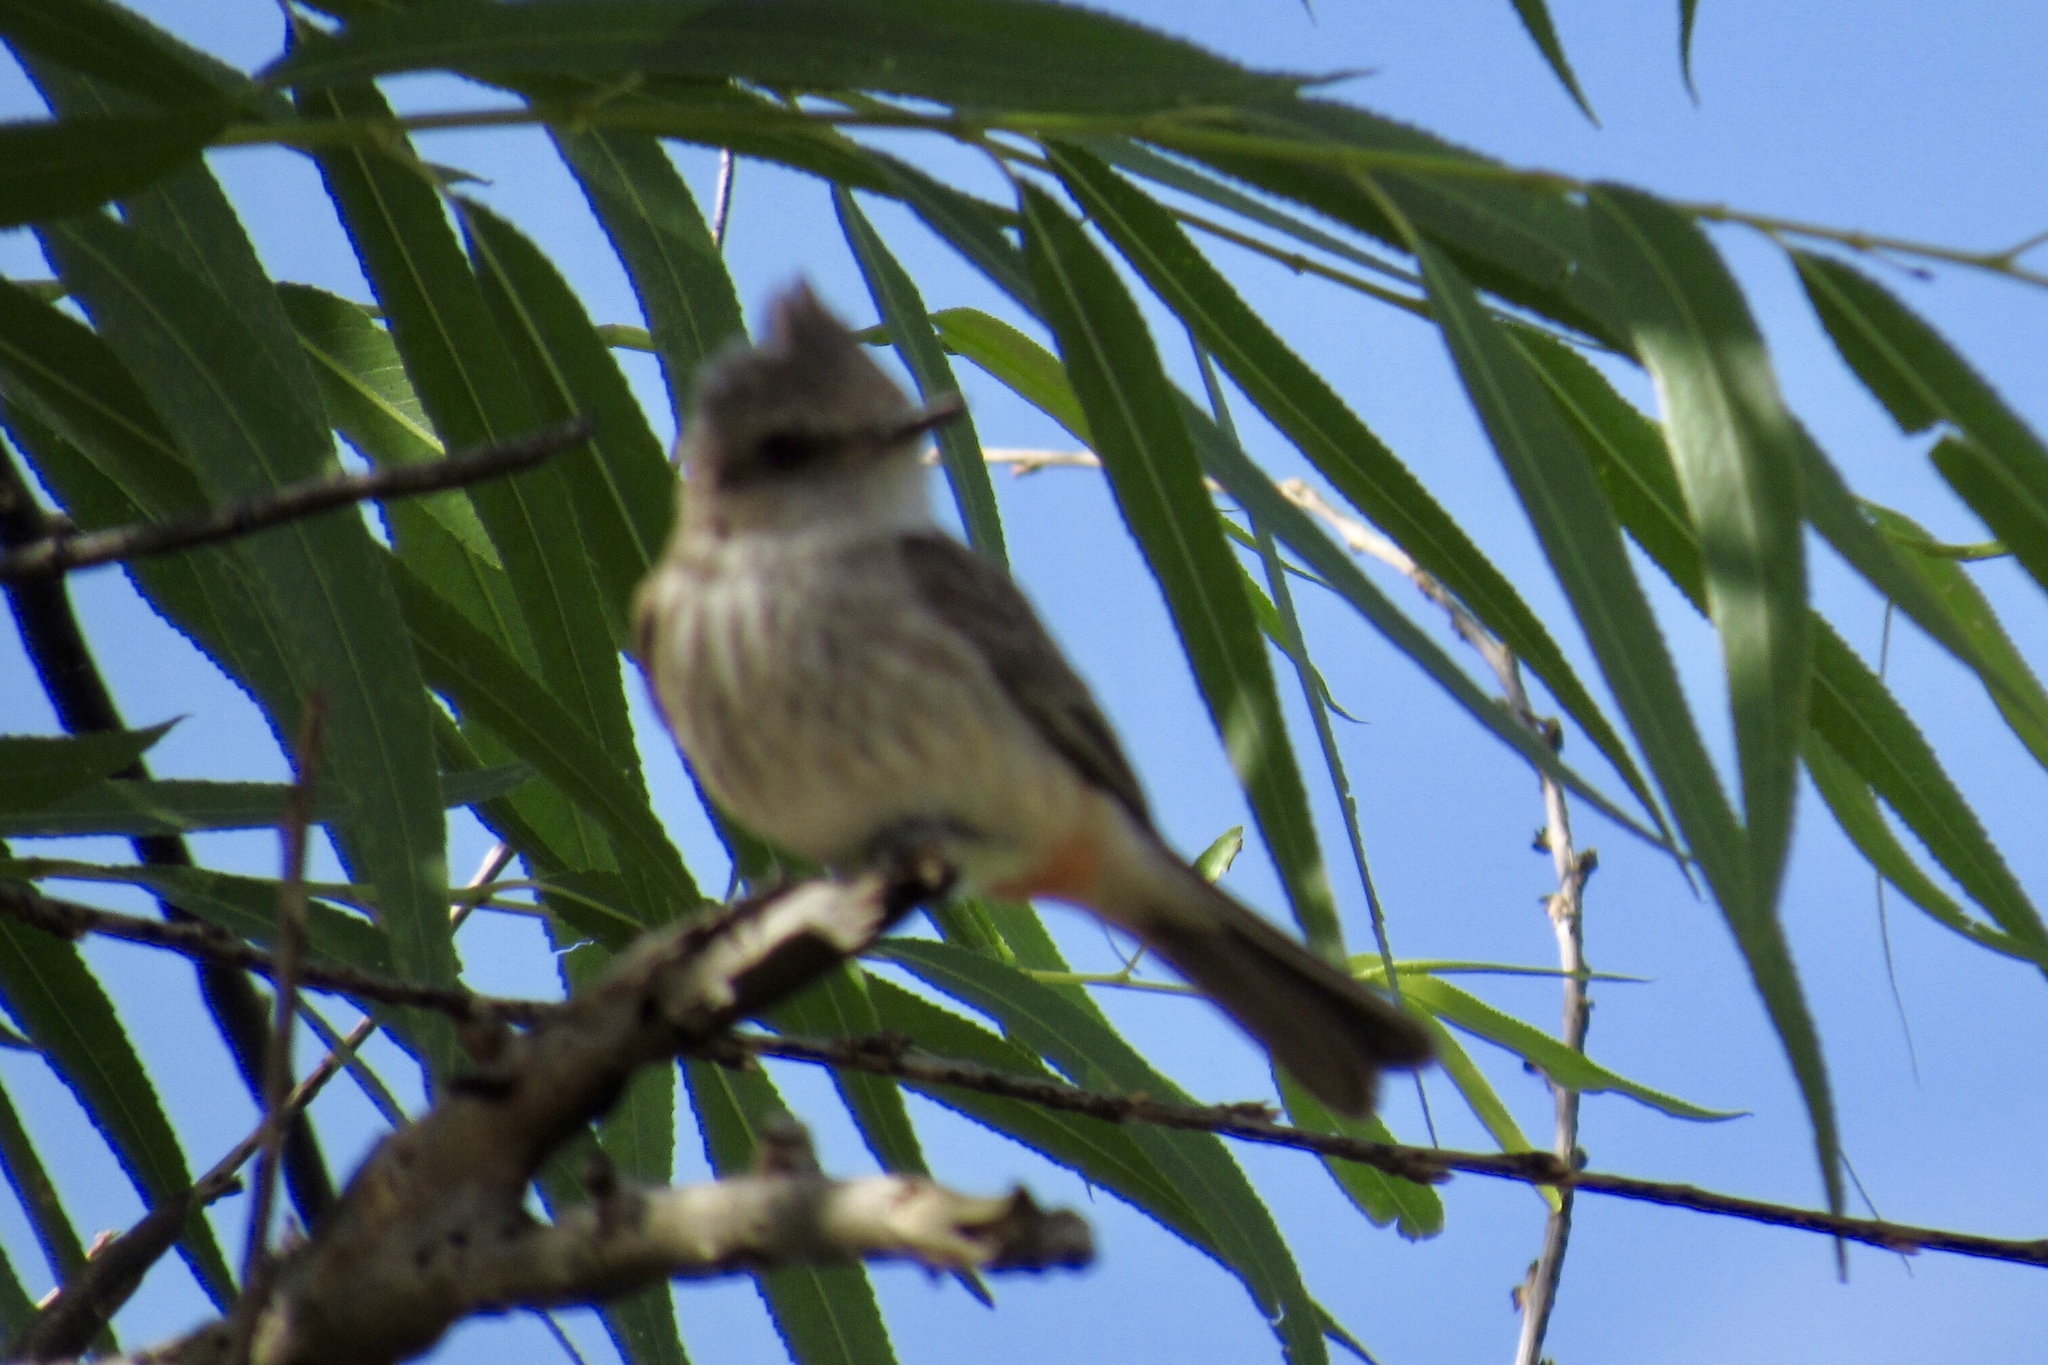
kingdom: Animalia
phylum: Chordata
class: Aves
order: Passeriformes
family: Tyrannidae
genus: Pyrocephalus
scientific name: Pyrocephalus rubinus
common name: Vermilion flycatcher
